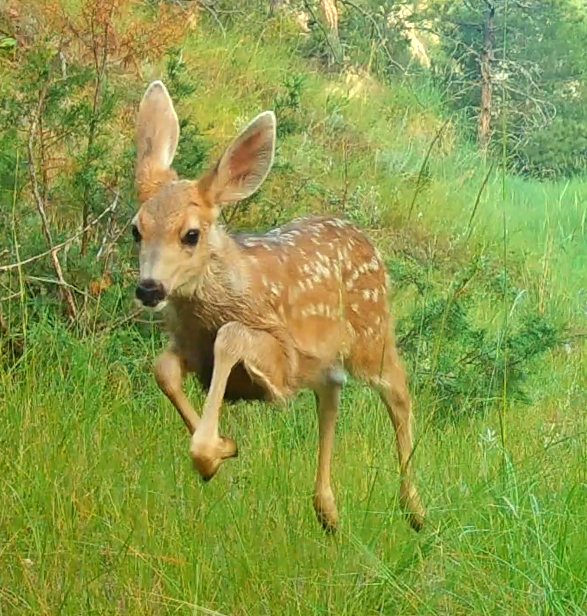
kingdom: Animalia
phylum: Chordata
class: Mammalia
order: Artiodactyla
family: Cervidae
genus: Odocoileus
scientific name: Odocoileus hemionus
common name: Mule deer
